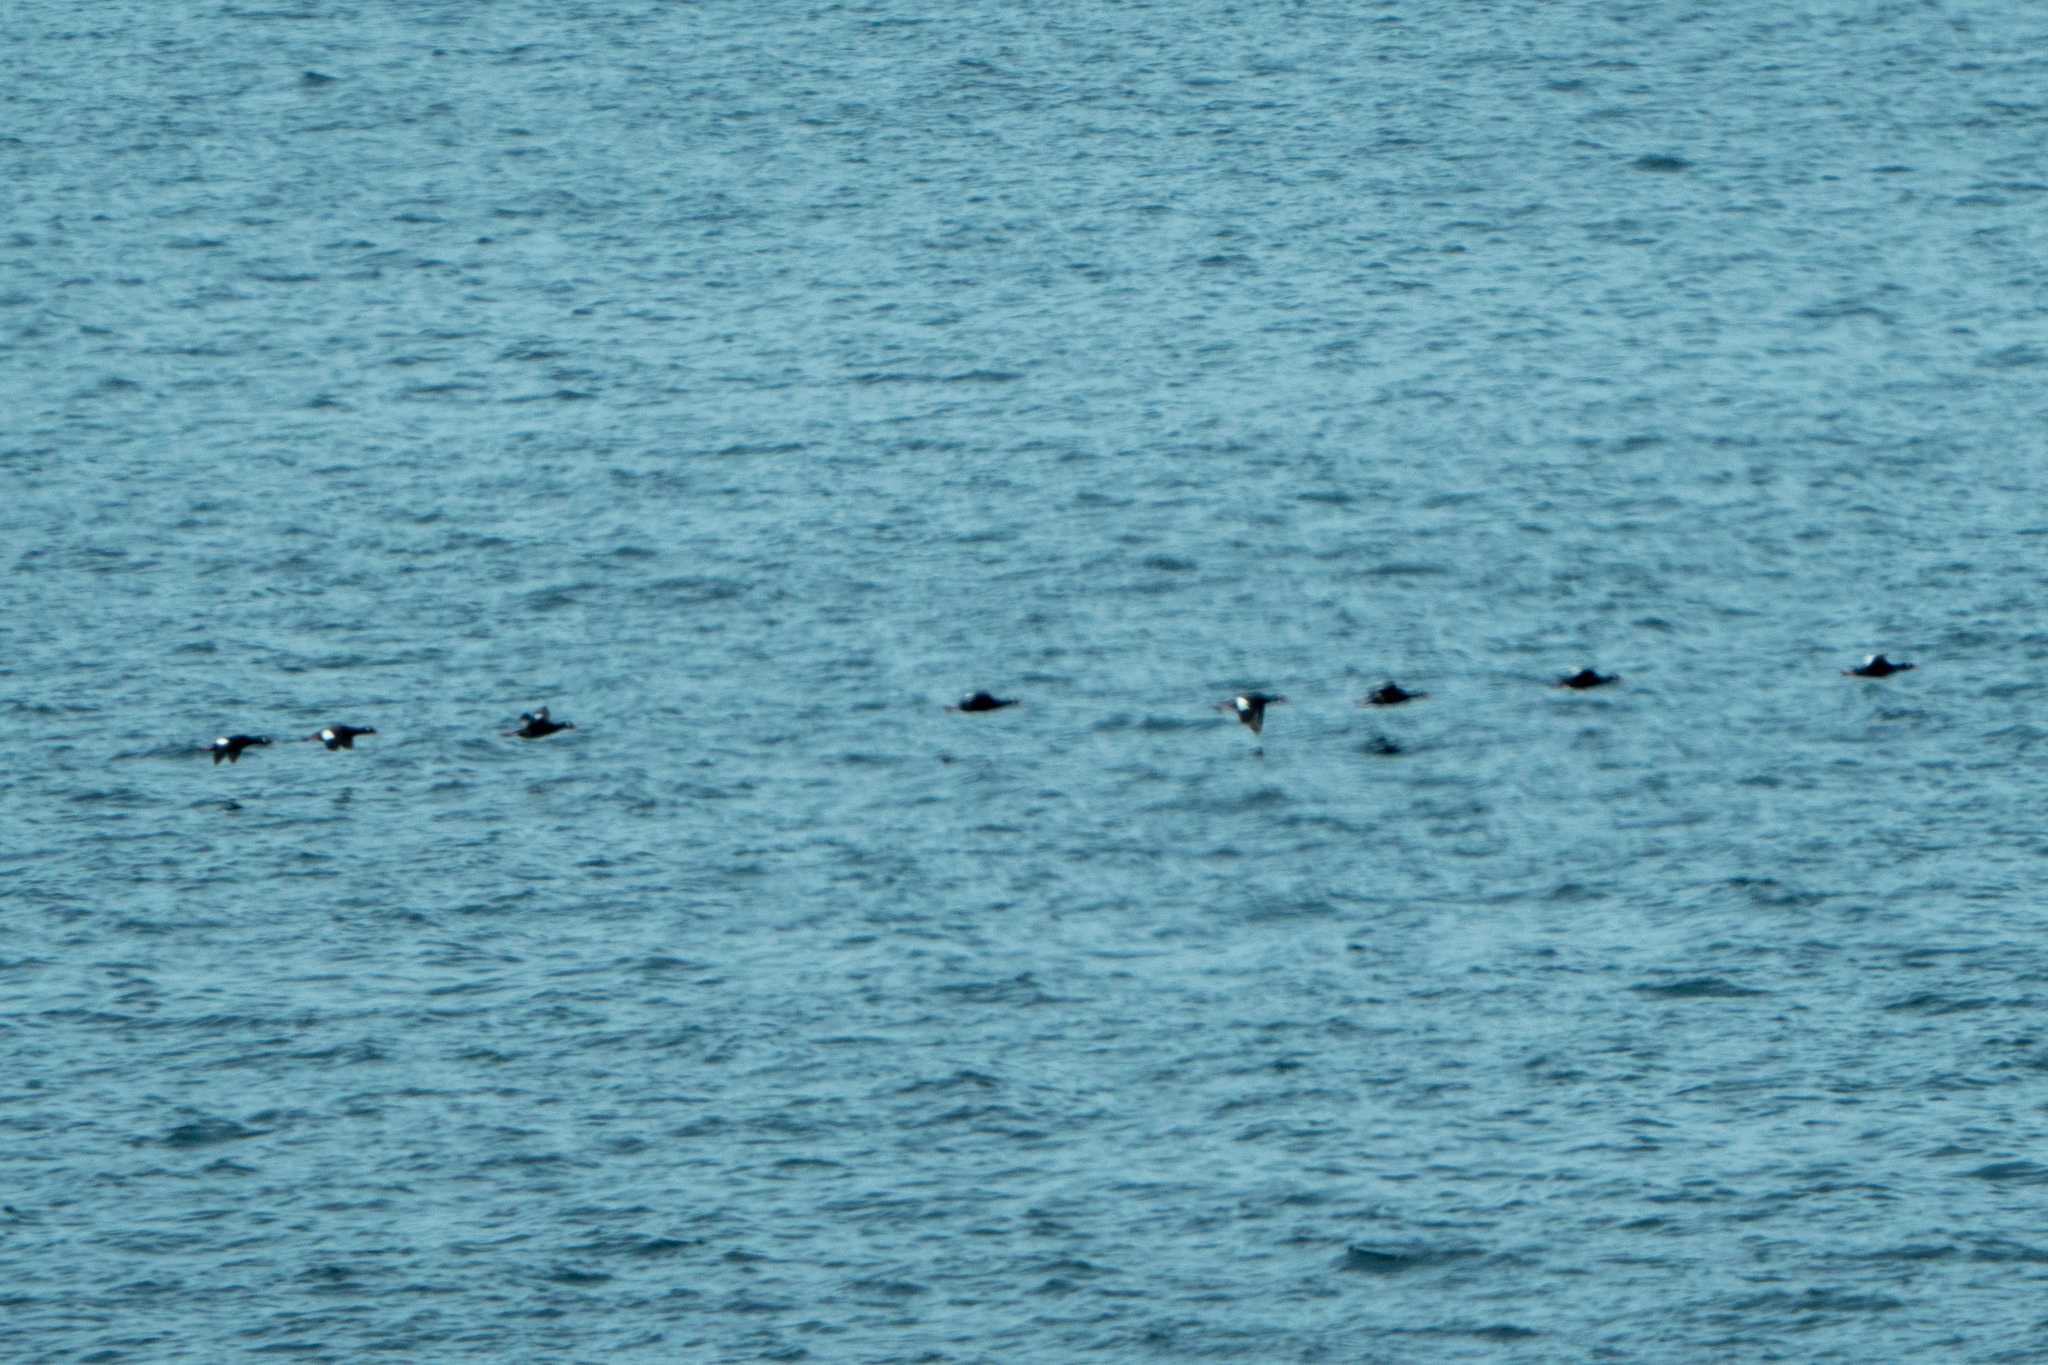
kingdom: Animalia
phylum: Chordata
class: Aves
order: Anseriformes
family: Anatidae
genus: Melanitta
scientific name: Melanitta deglandi
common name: White-winged scoter
